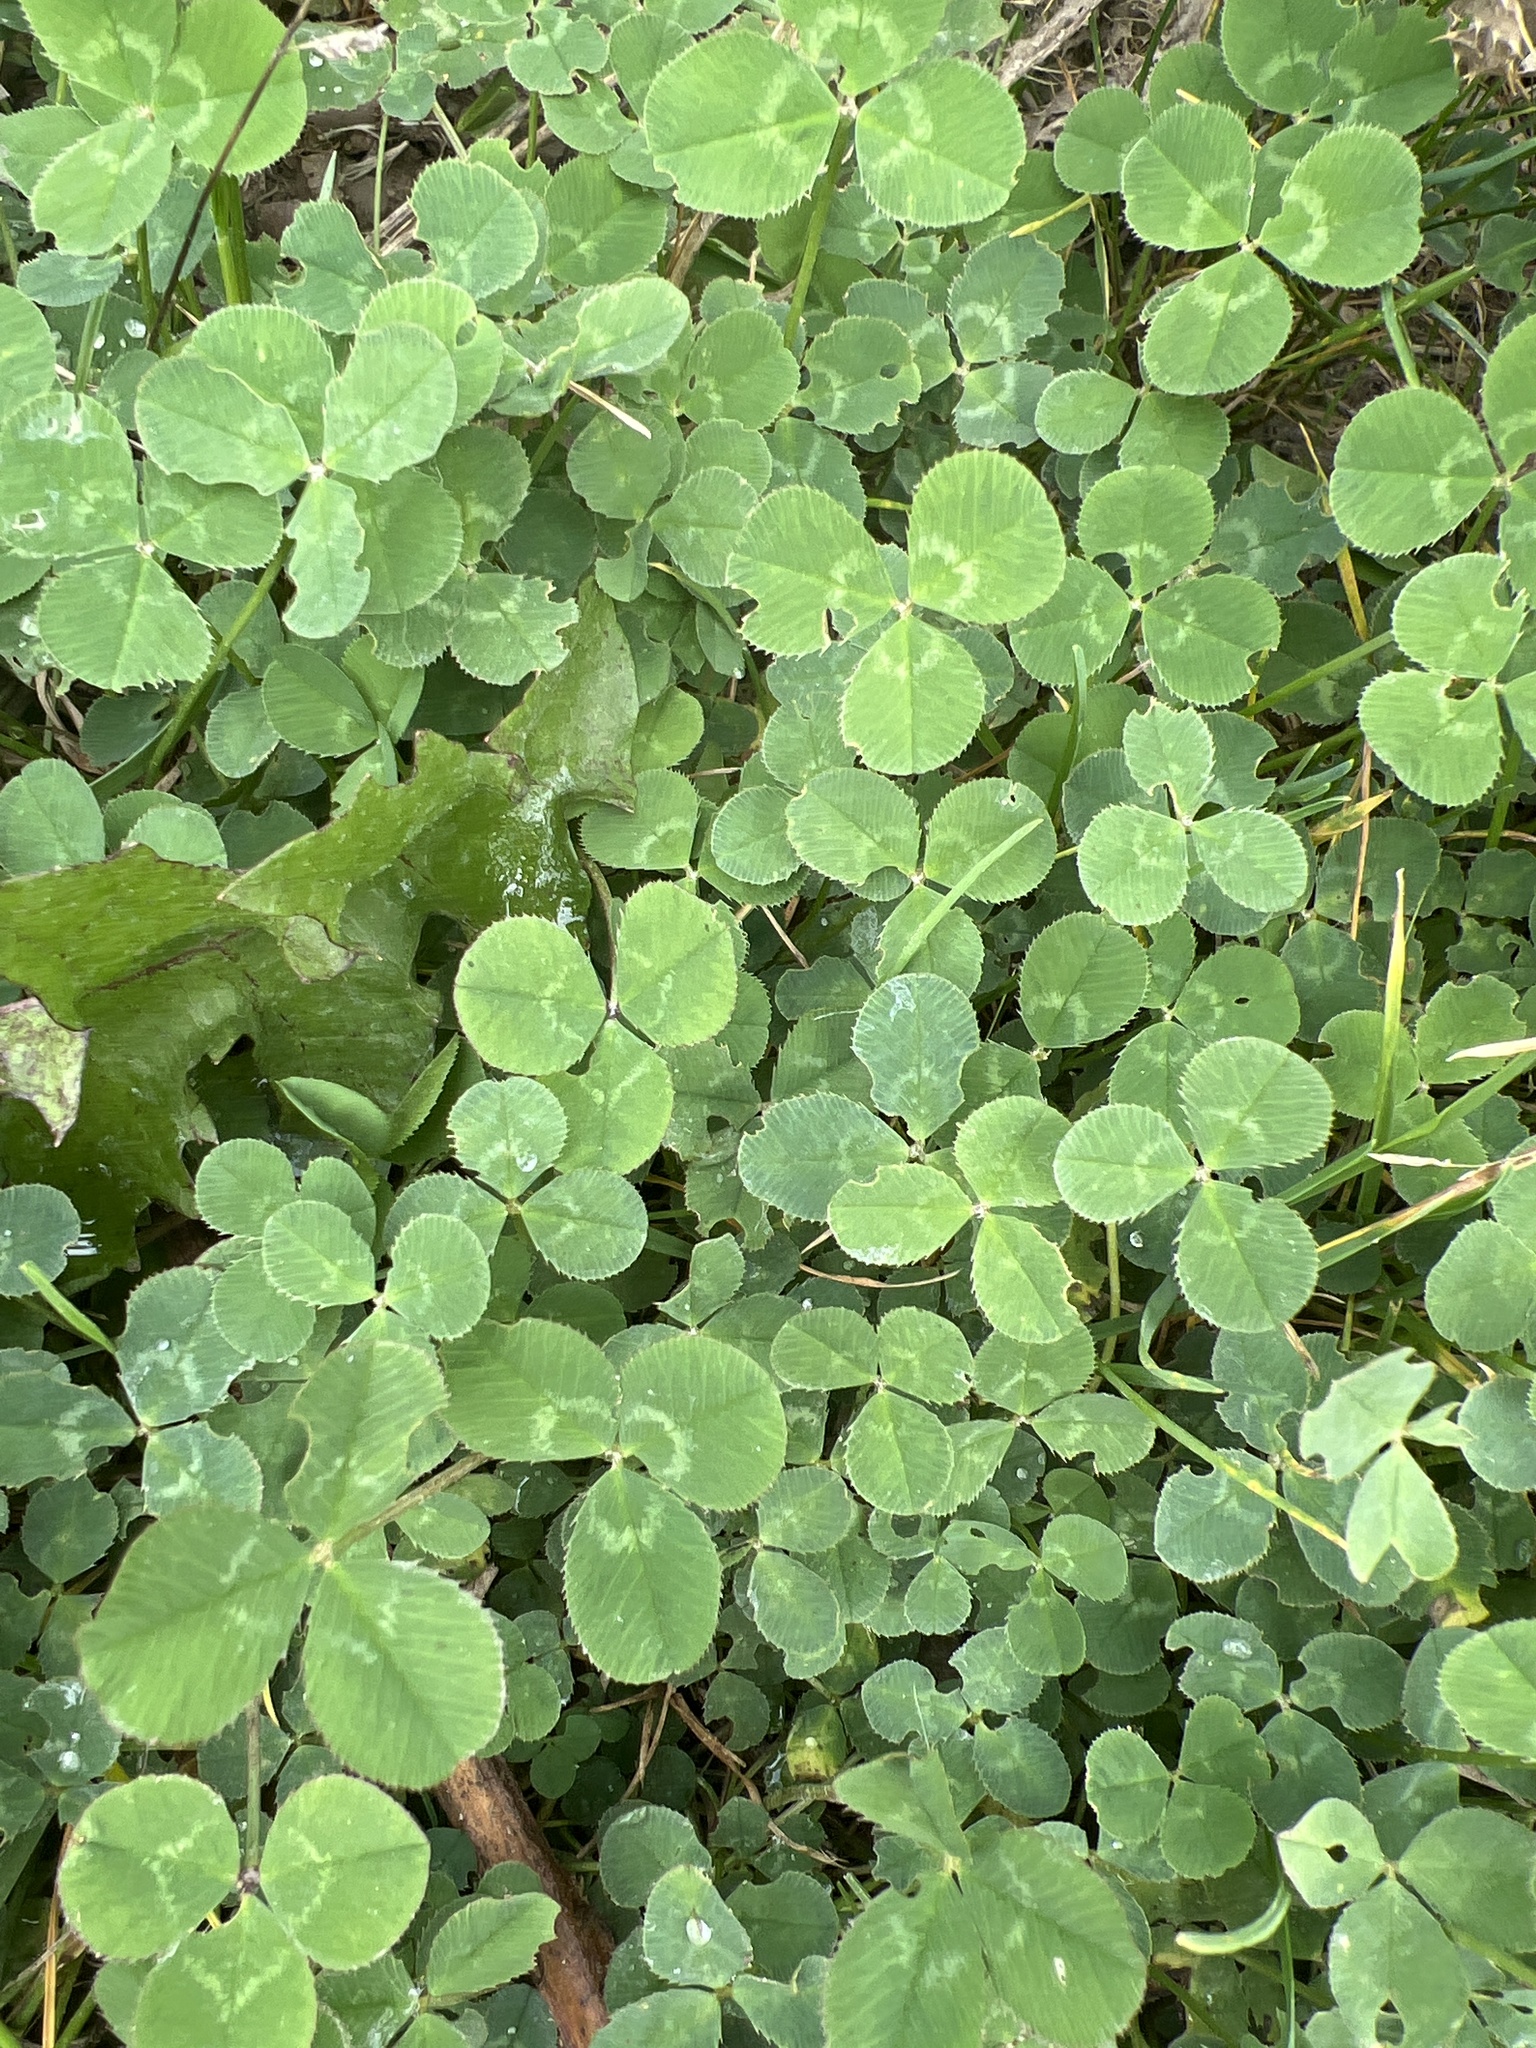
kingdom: Plantae
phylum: Tracheophyta
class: Magnoliopsida
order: Fabales
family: Fabaceae
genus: Trifolium
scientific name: Trifolium repens
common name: White clover
